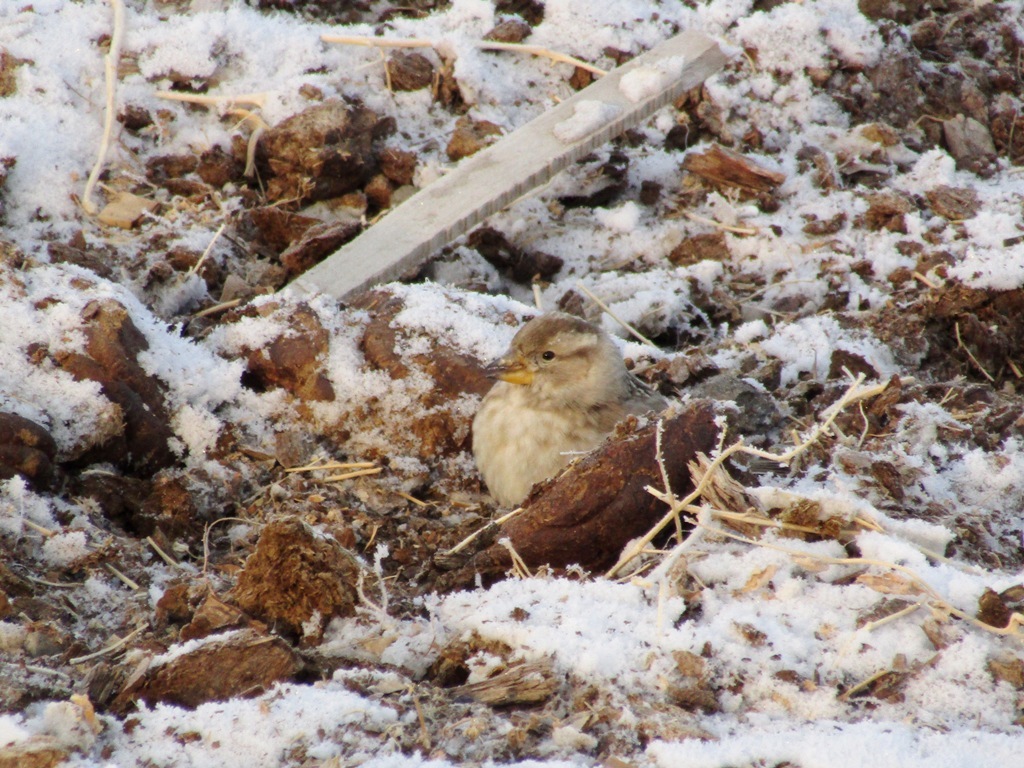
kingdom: Animalia
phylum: Chordata
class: Aves
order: Passeriformes
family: Passeridae
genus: Petronia
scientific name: Petronia petronia
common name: Rock sparrow
